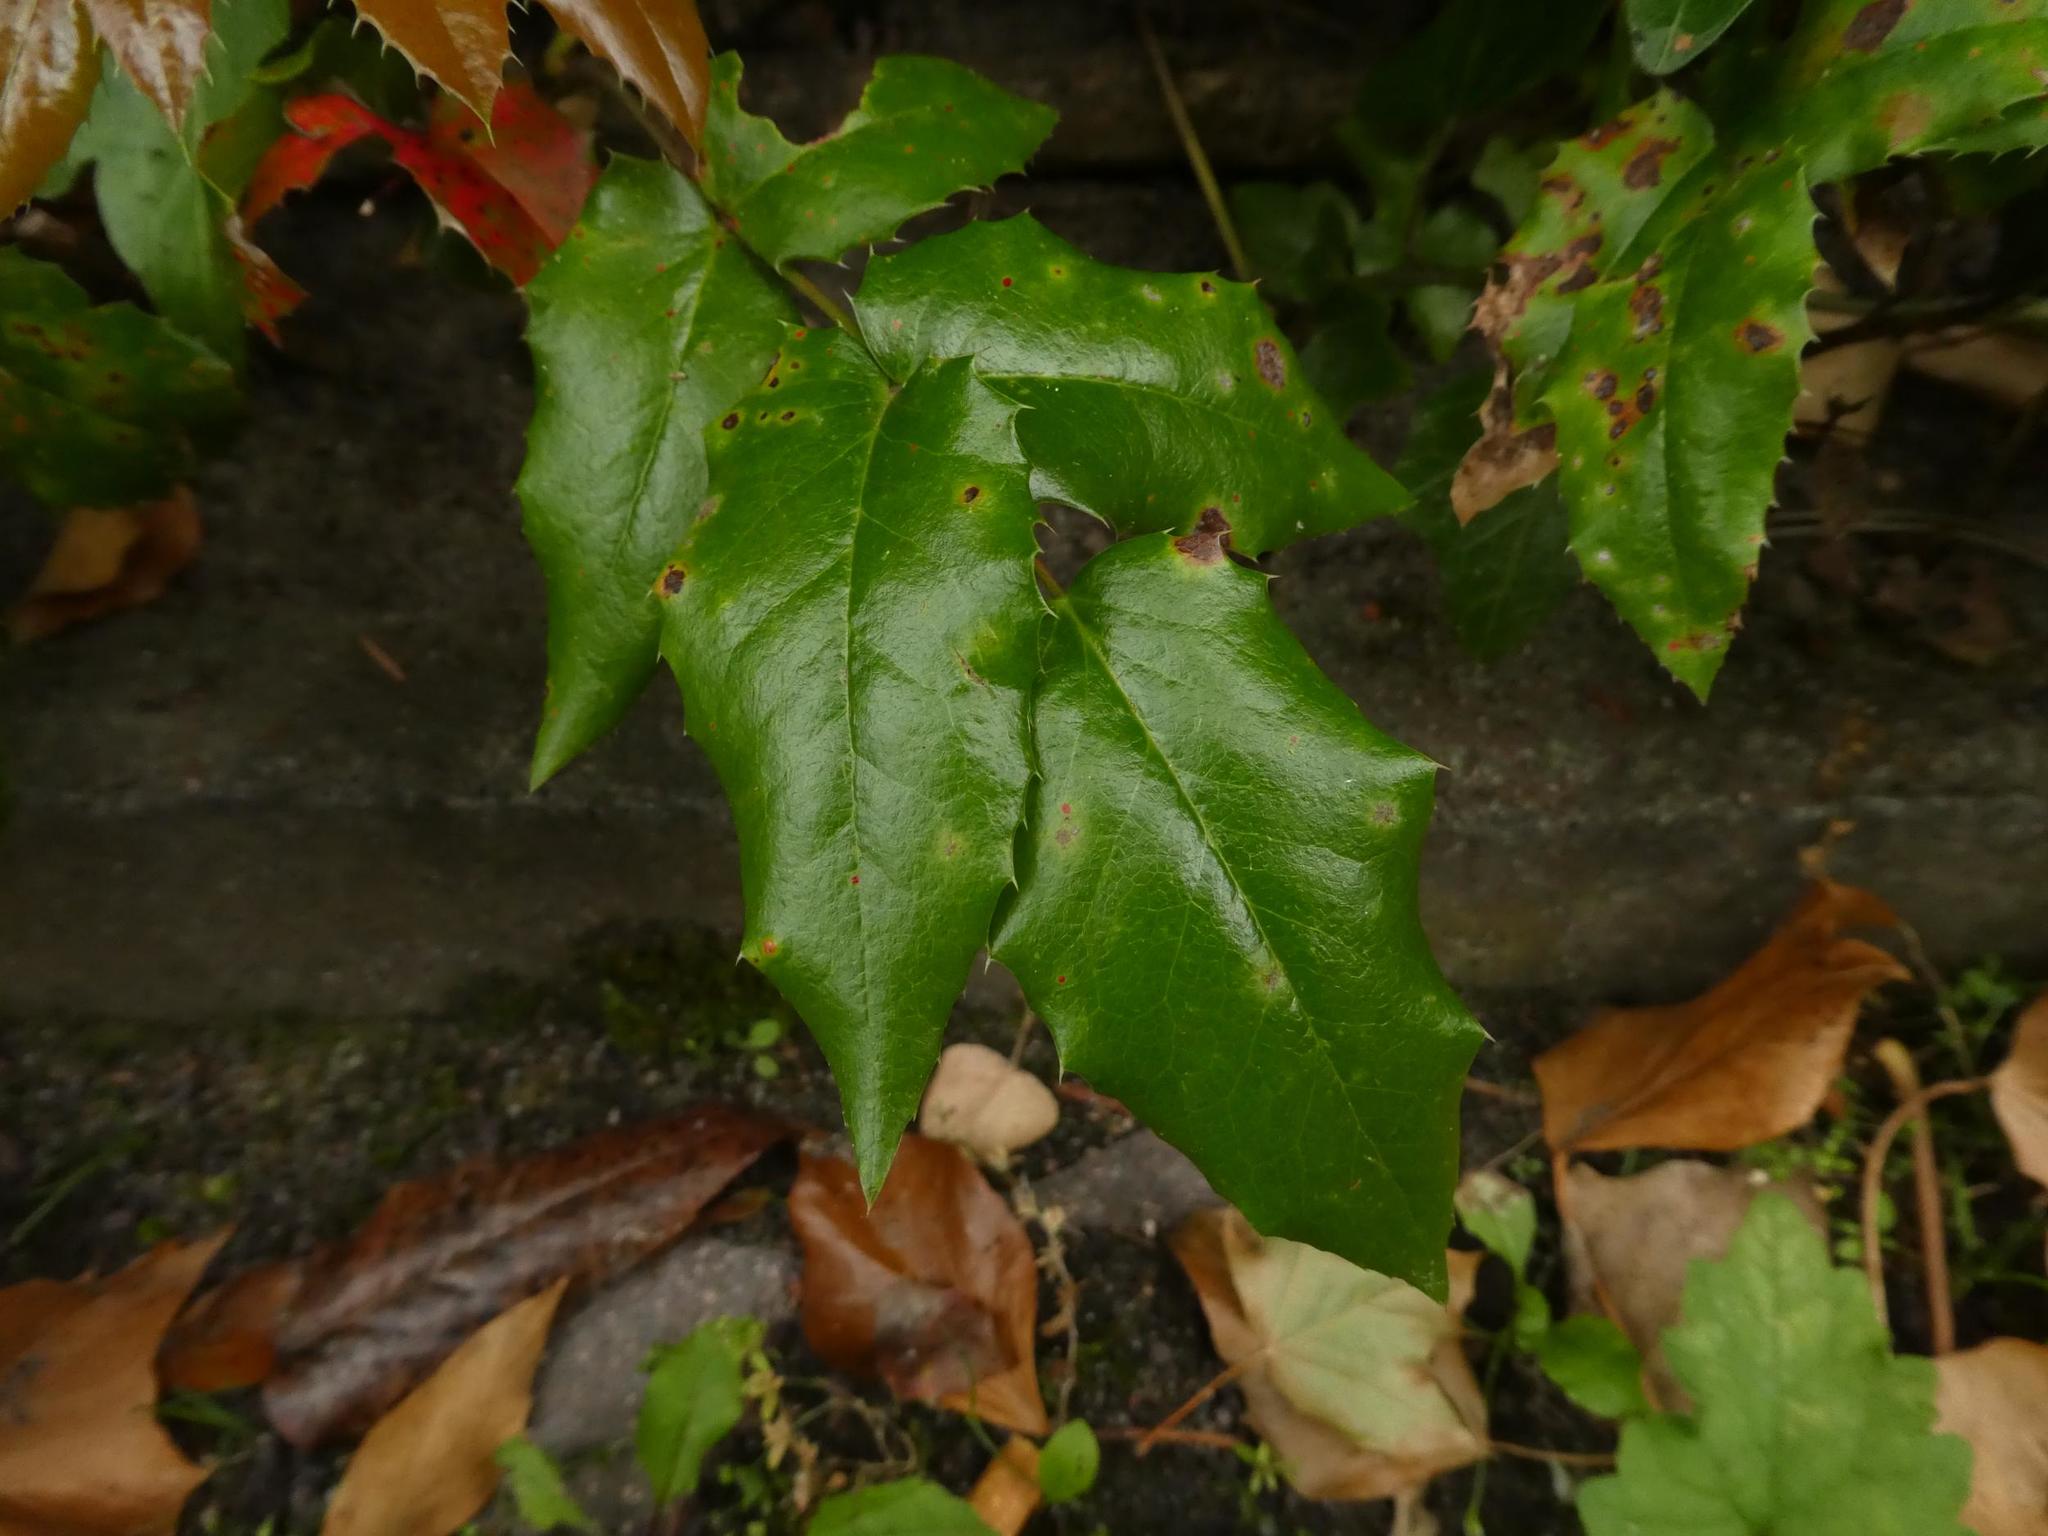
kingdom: Plantae
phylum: Tracheophyta
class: Magnoliopsida
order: Ranunculales
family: Berberidaceae
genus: Mahonia
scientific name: Mahonia aquifolium
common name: Oregon-grape
